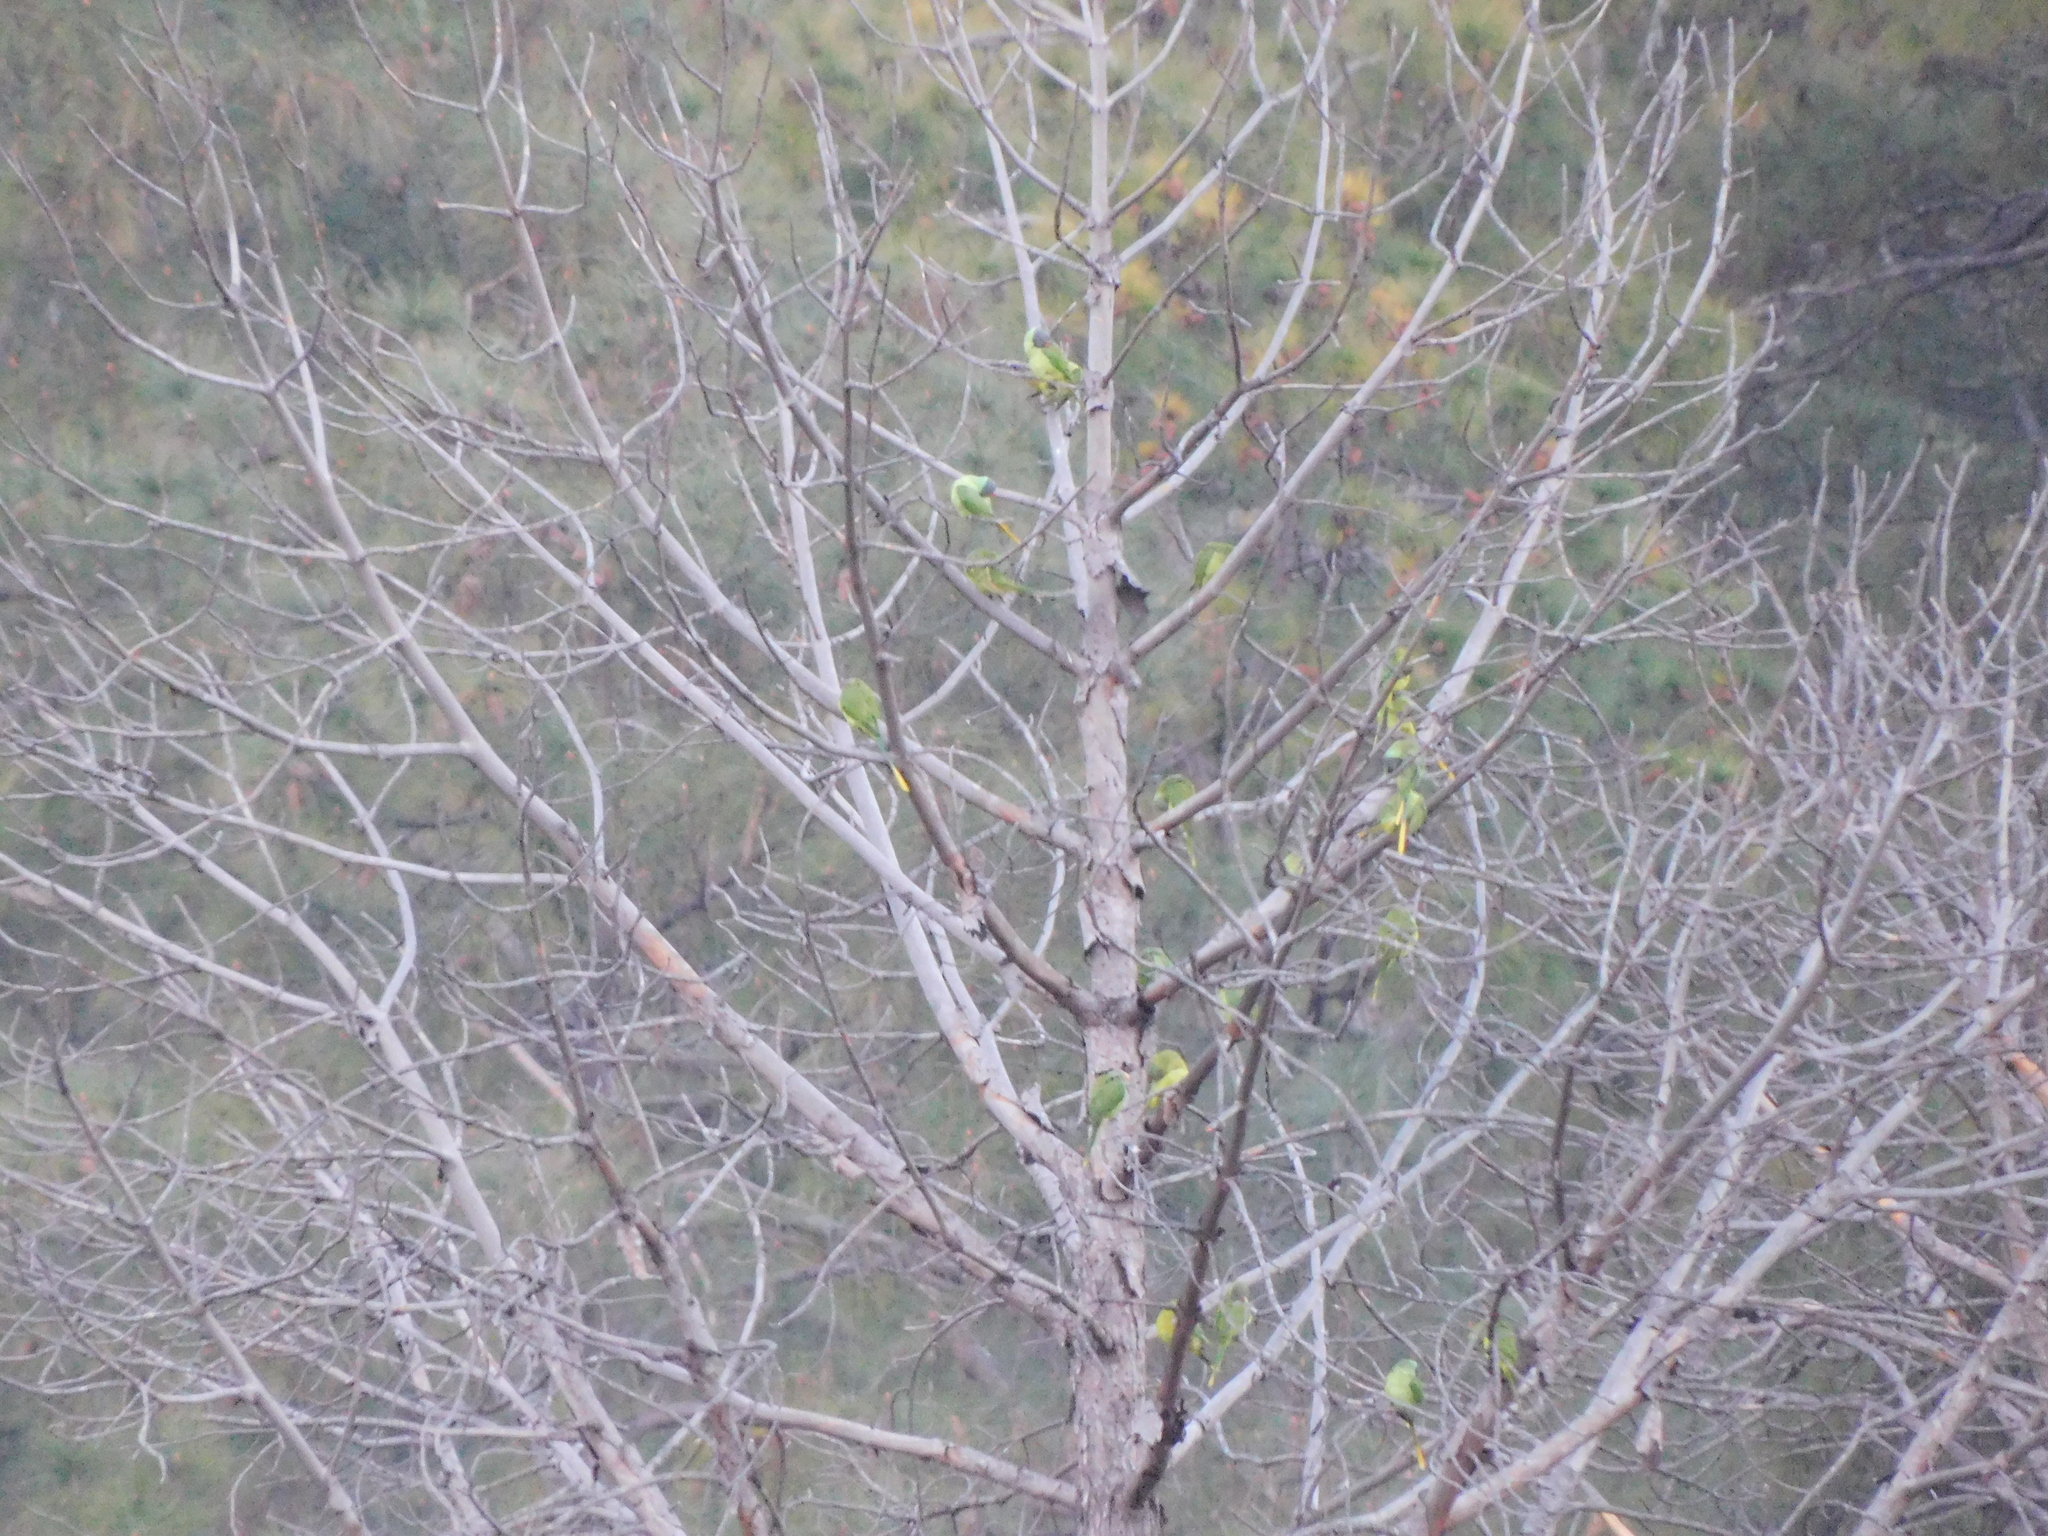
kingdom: Animalia
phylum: Chordata
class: Aves
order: Psittaciformes
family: Psittacidae
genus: Psittacula
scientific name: Psittacula himalayana
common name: Slaty-headed parakeet
